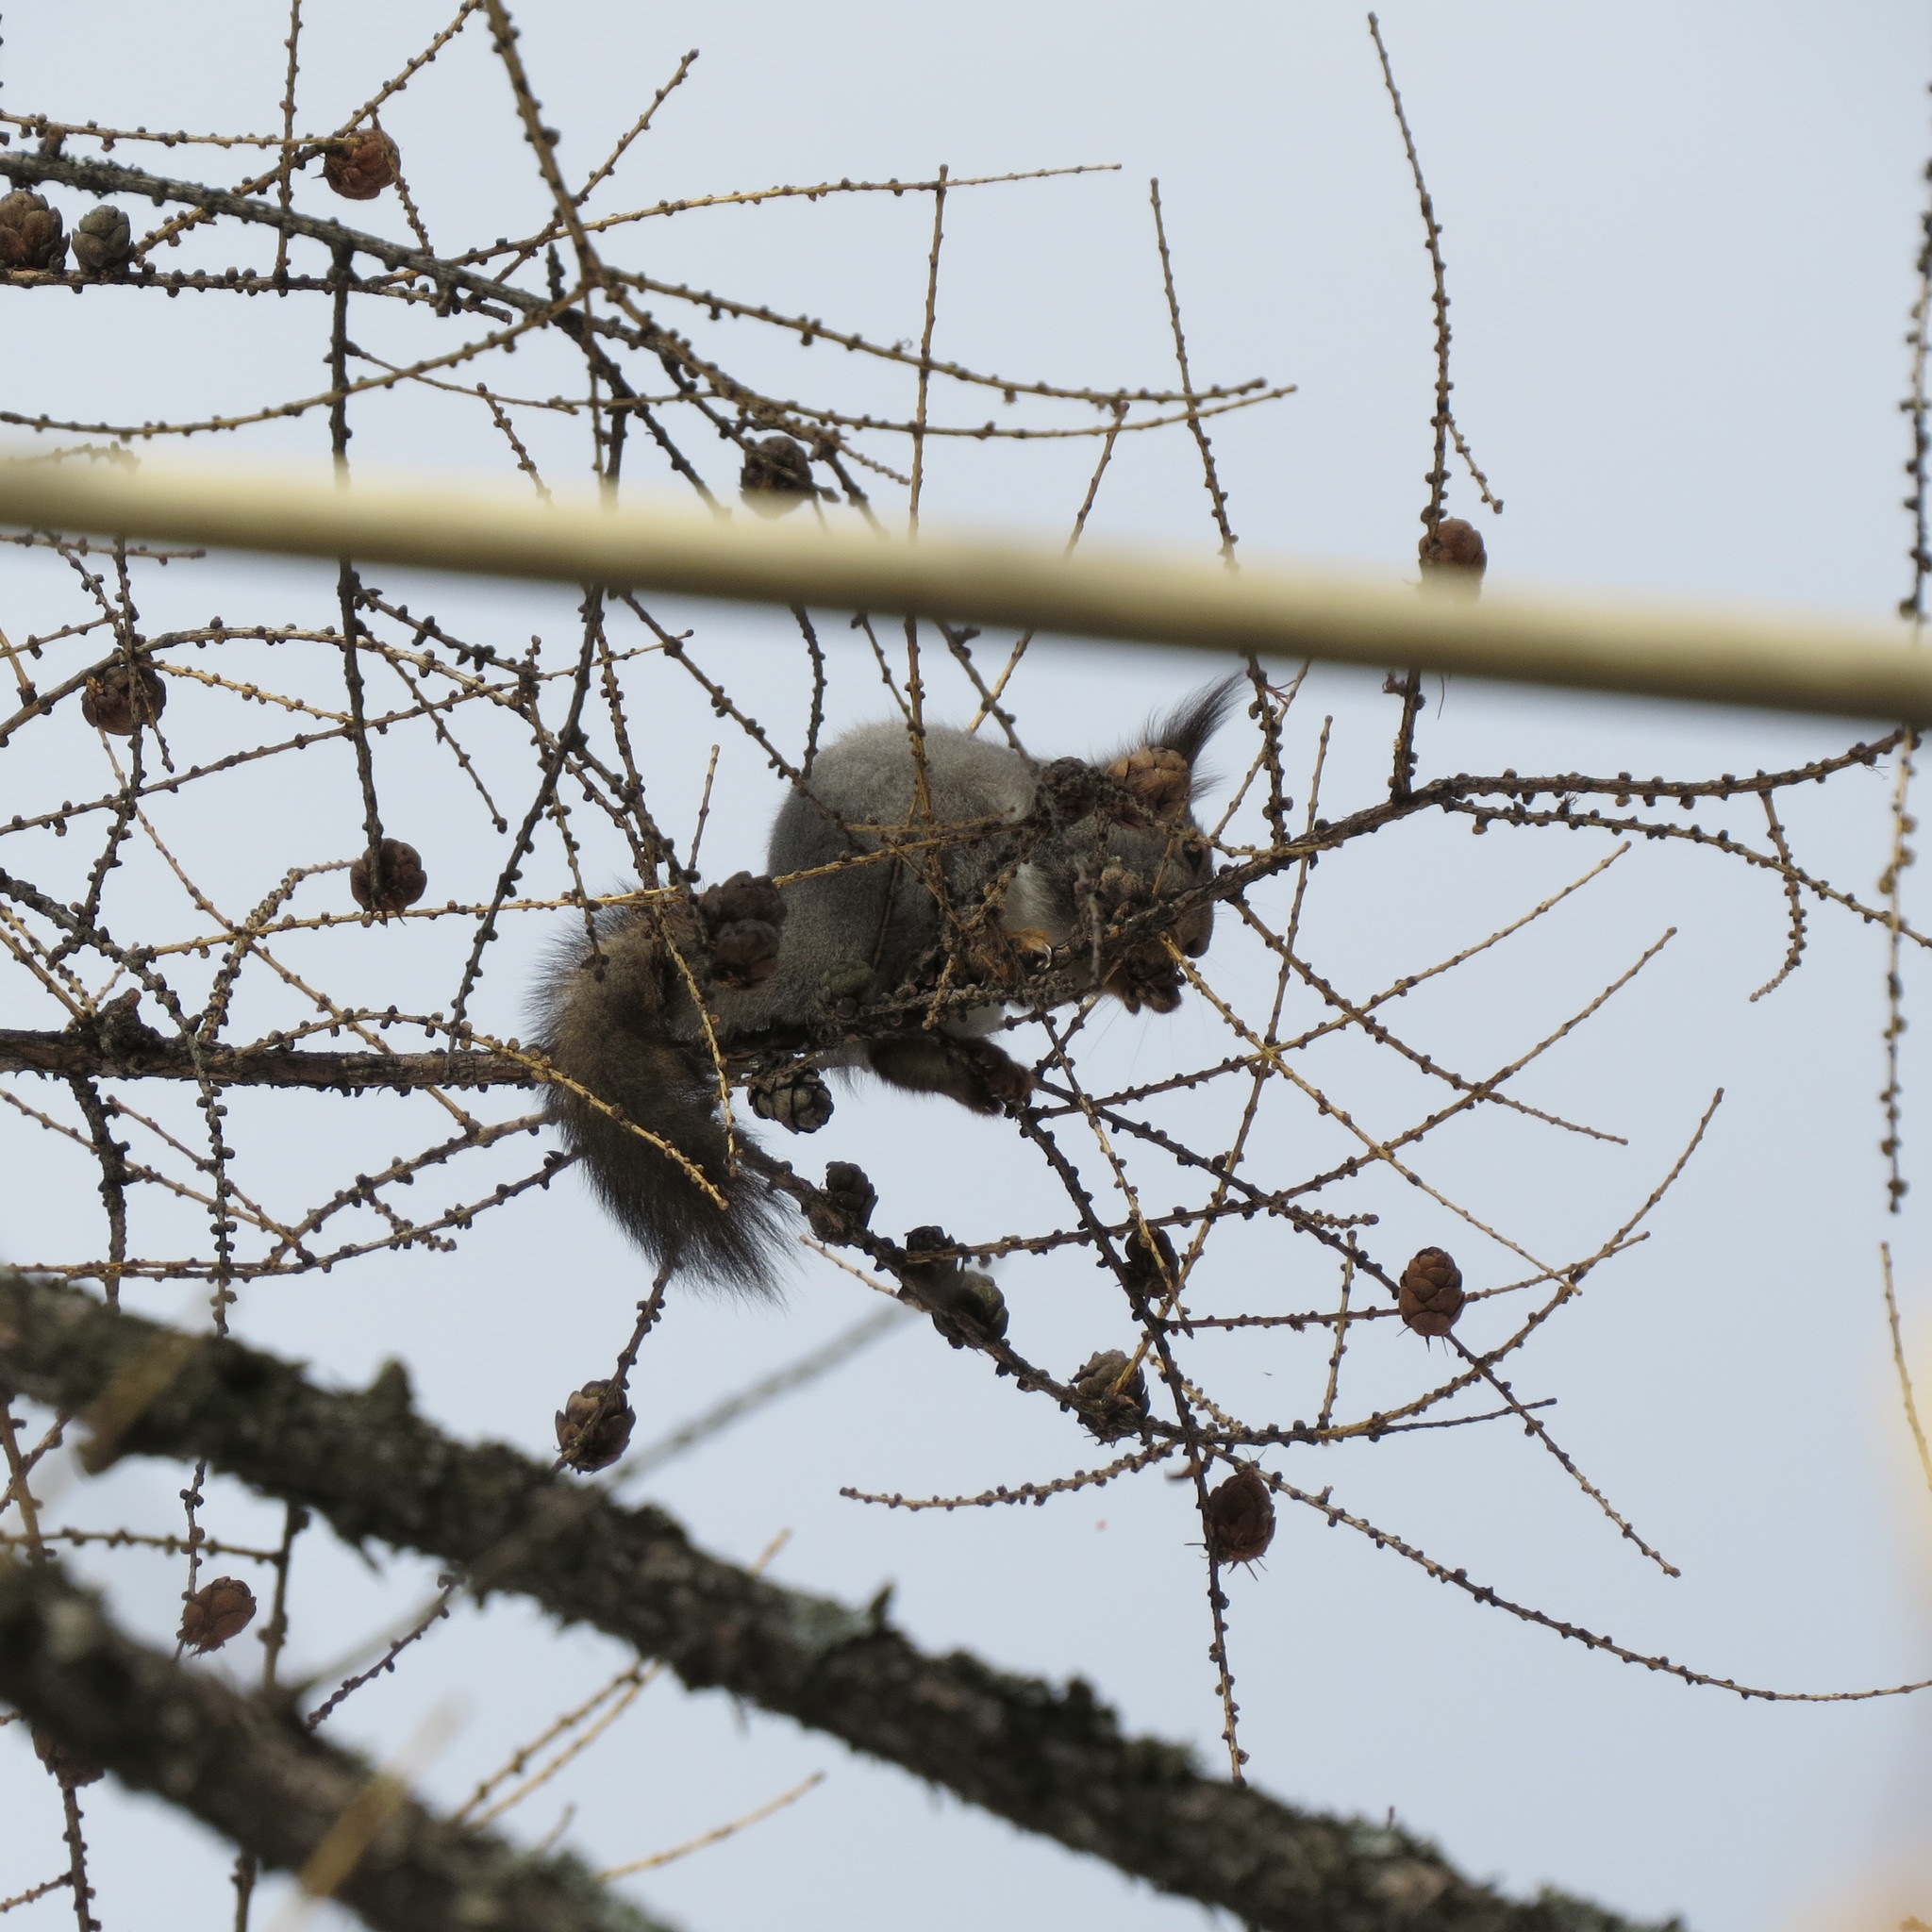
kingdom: Animalia
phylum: Chordata
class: Mammalia
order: Rodentia
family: Sciuridae
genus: Sciurus
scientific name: Sciurus vulgaris
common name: Eurasian red squirrel
